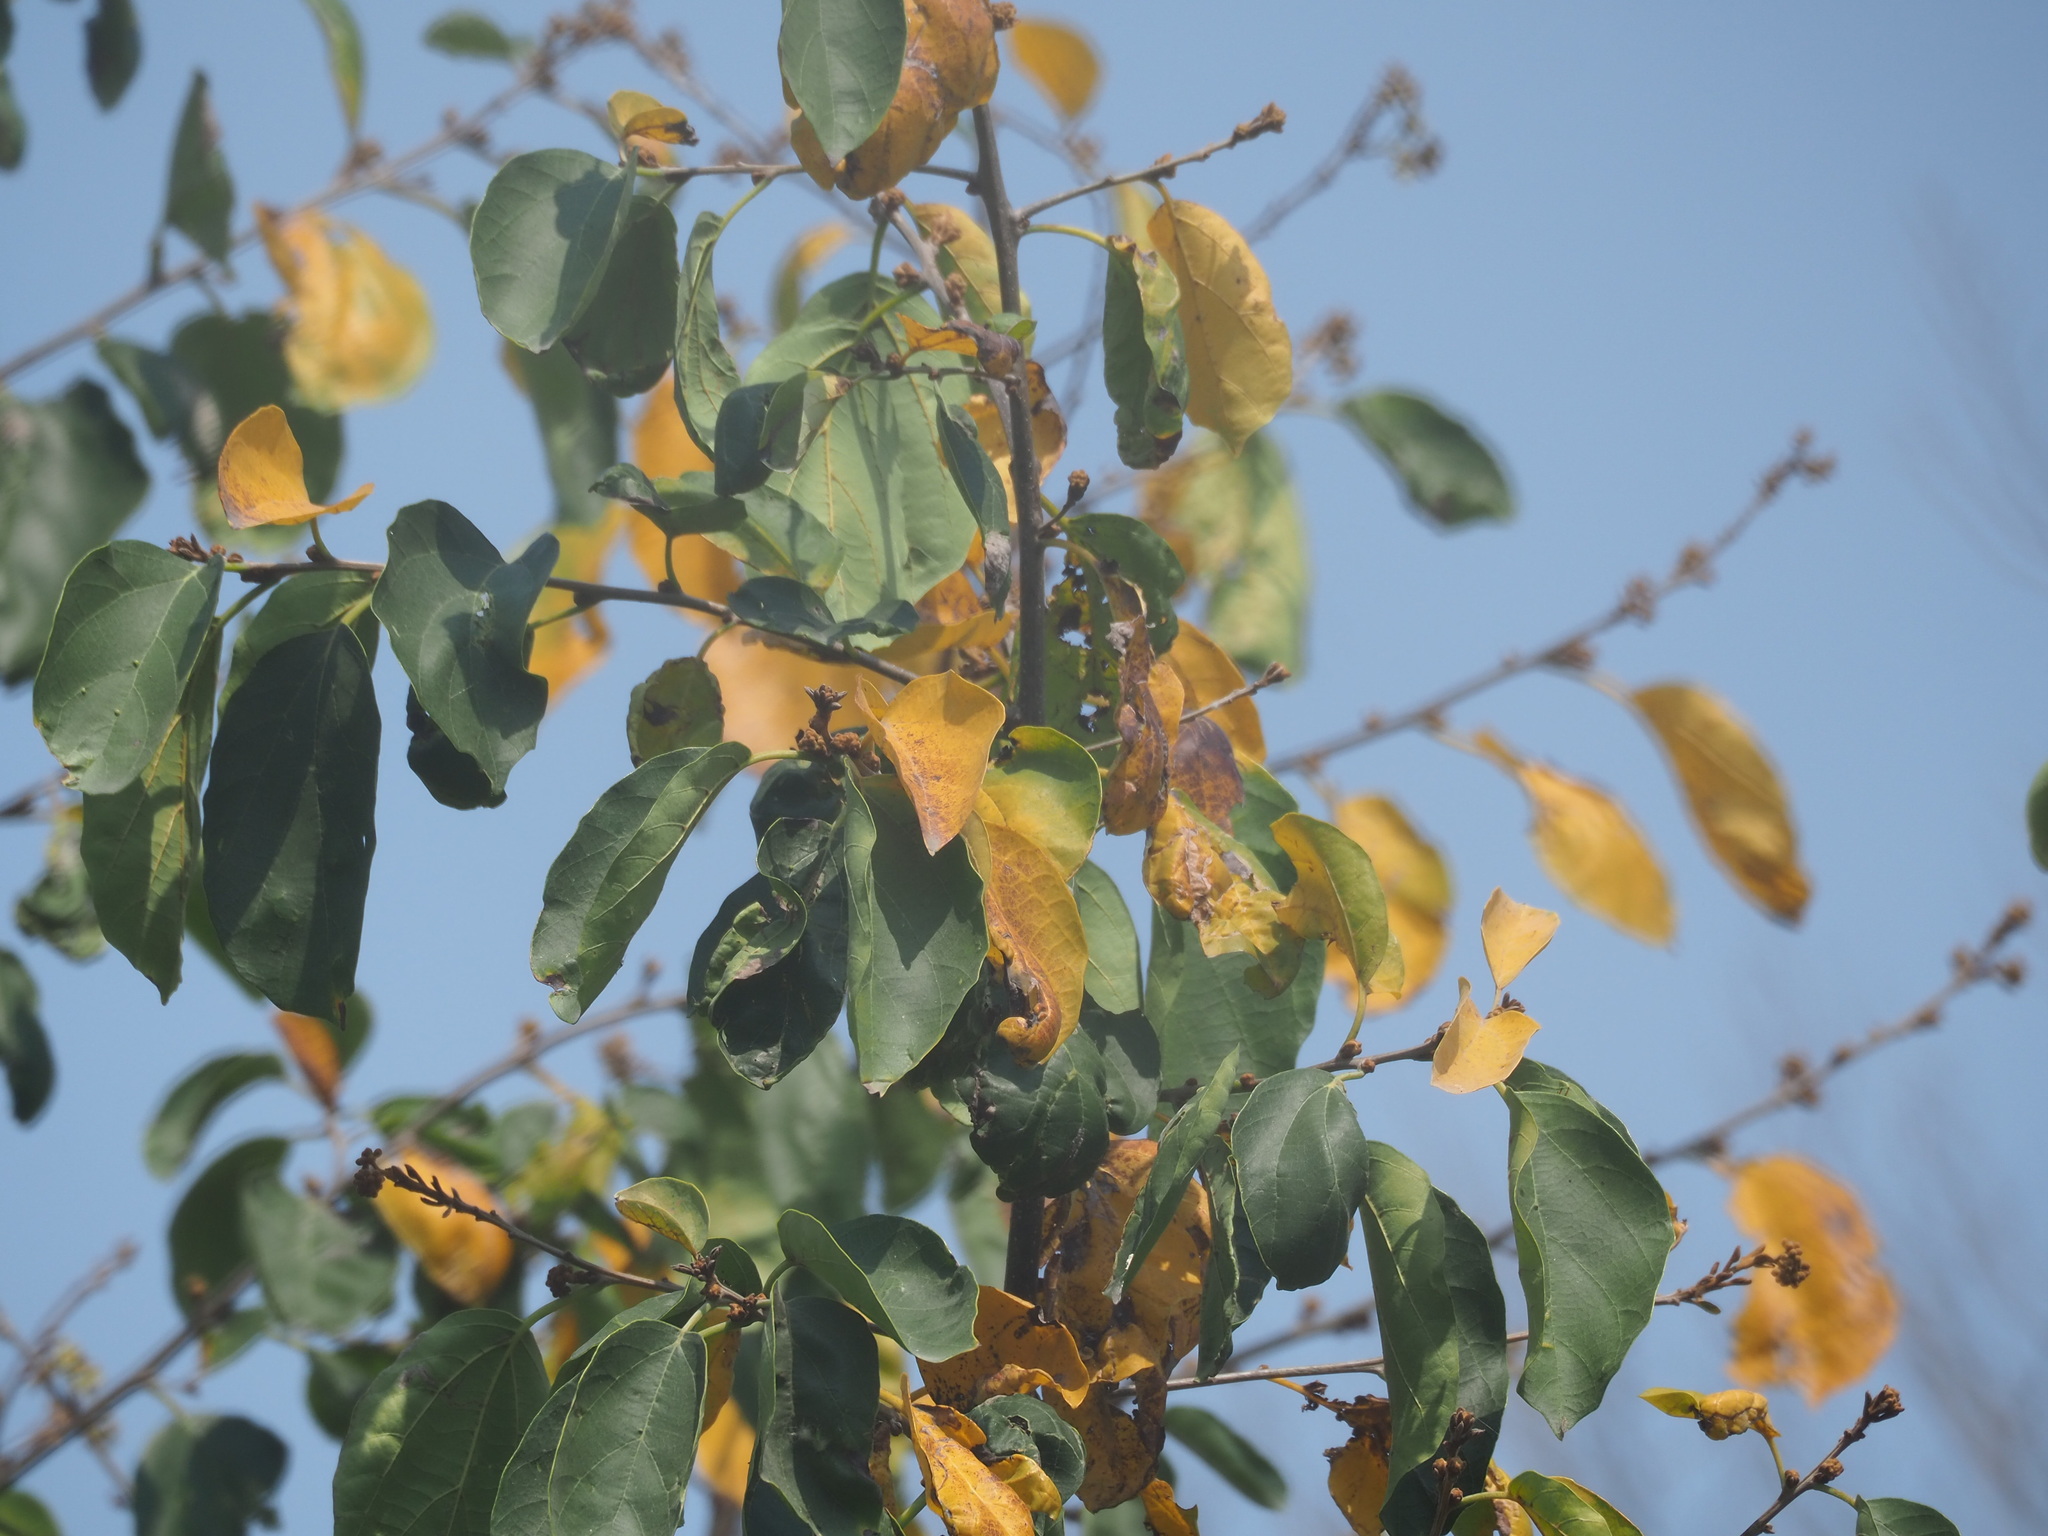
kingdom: Plantae
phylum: Tracheophyta
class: Magnoliopsida
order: Boraginales
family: Cordiaceae
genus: Cordia
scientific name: Cordia dichotoma
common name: Fragrant manjack
